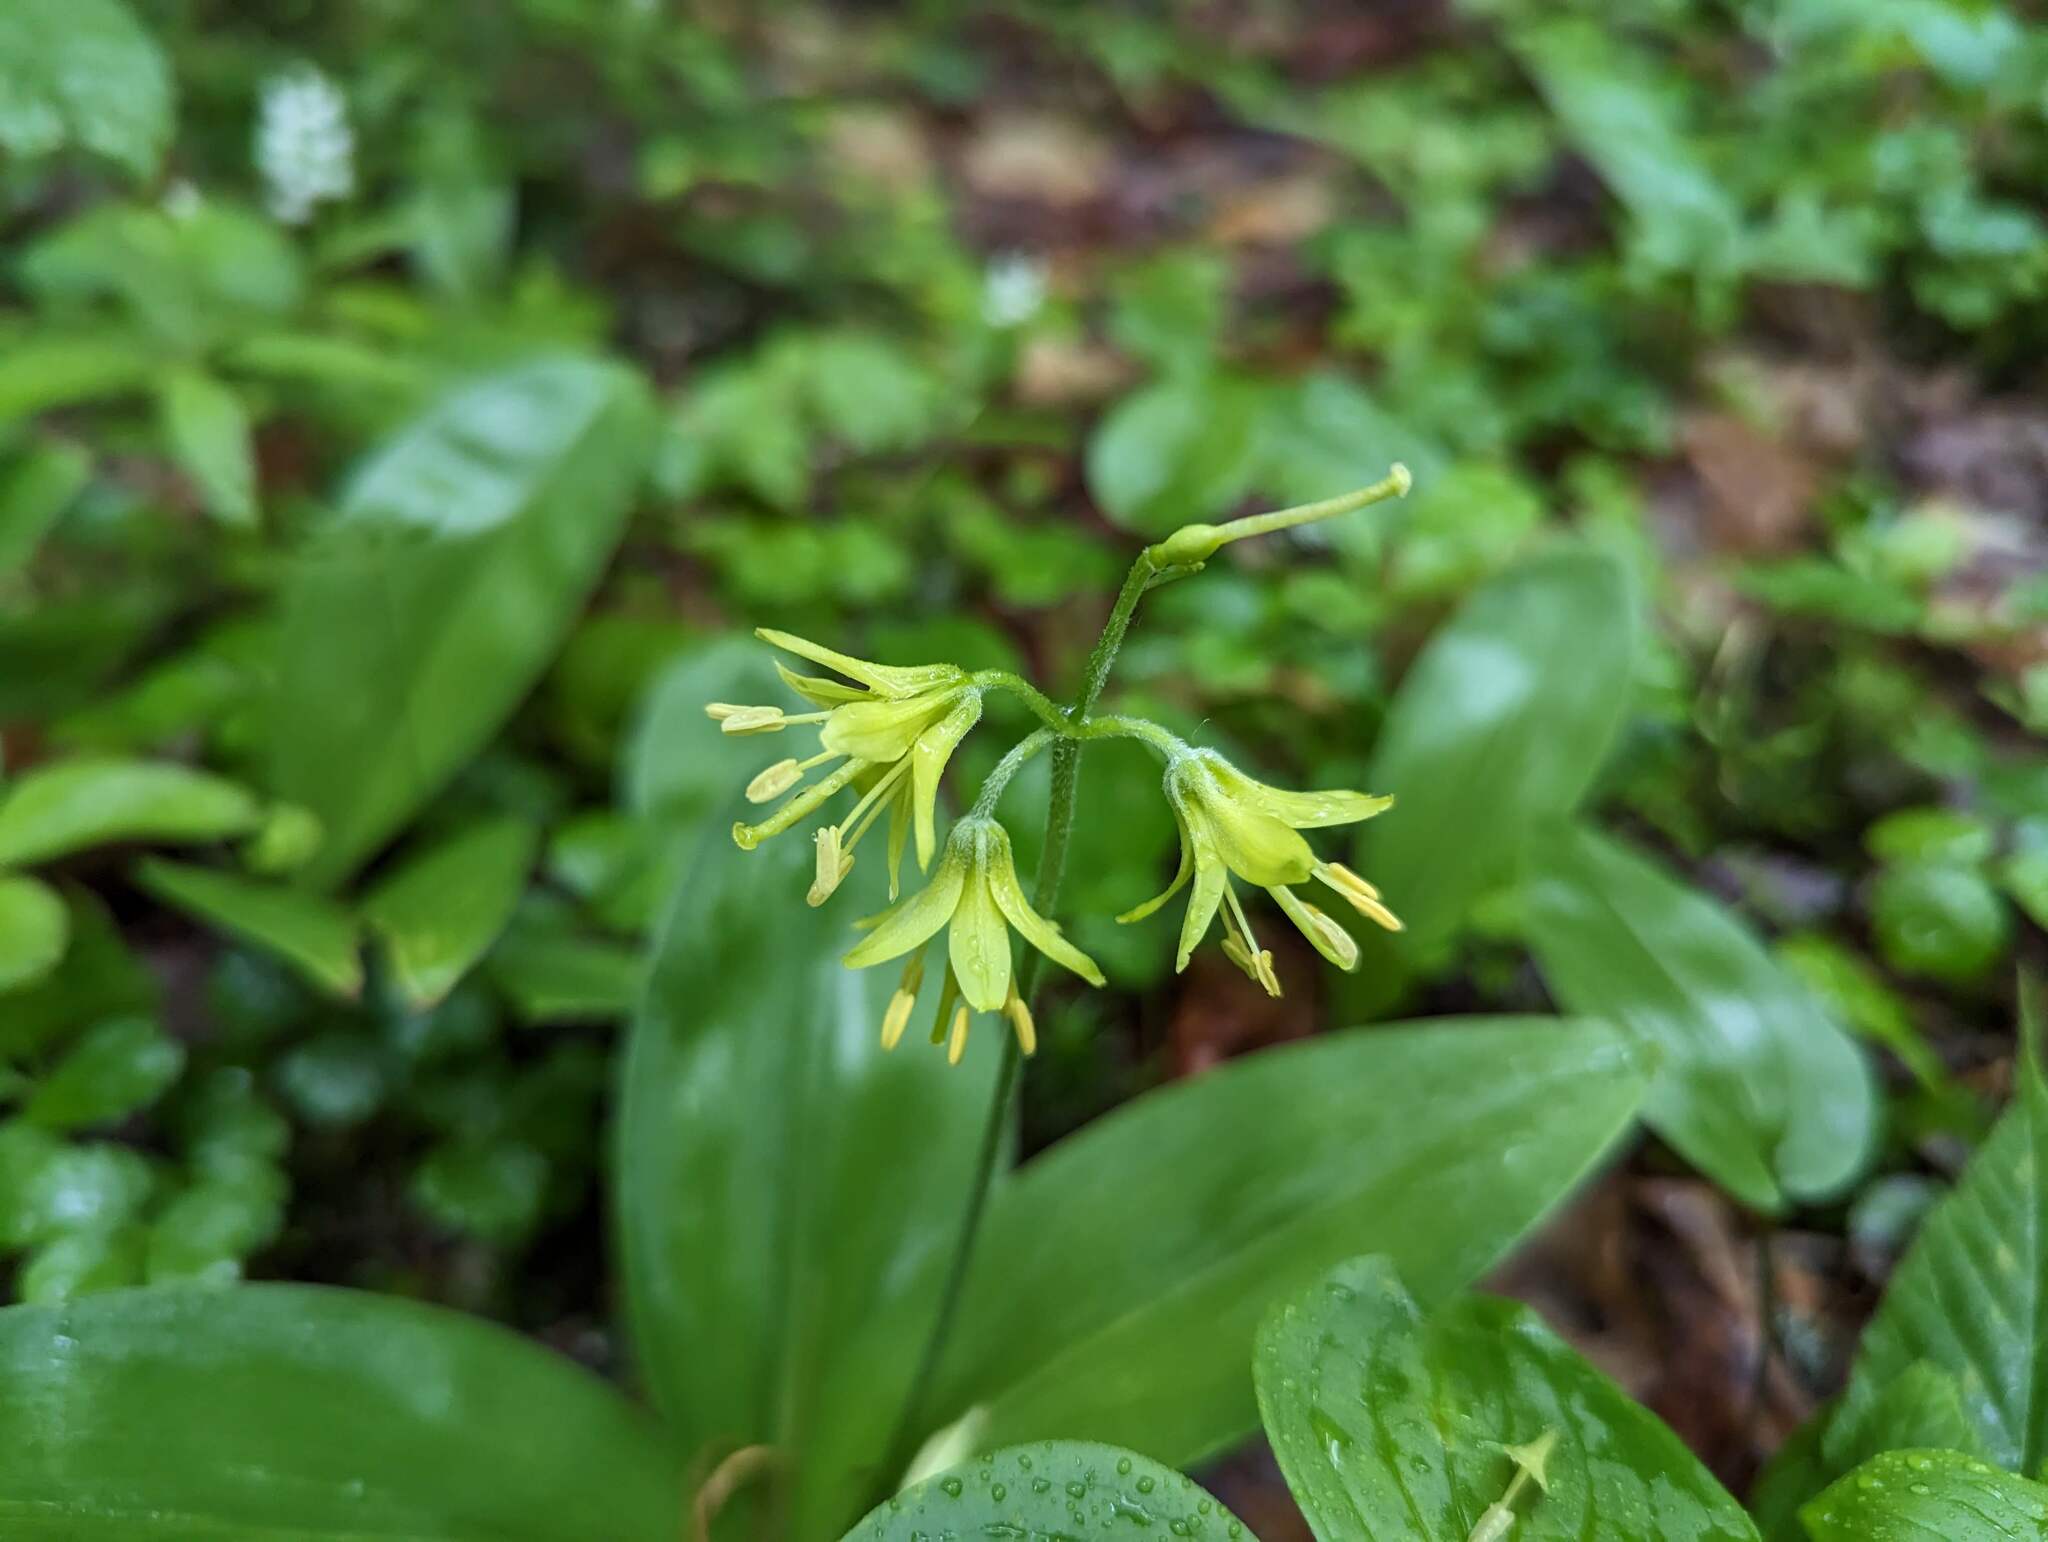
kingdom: Plantae
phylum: Tracheophyta
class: Liliopsida
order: Liliales
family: Liliaceae
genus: Clintonia
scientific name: Clintonia borealis
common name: Yellow clintonia
